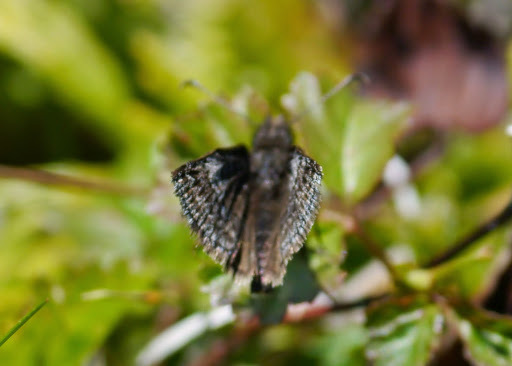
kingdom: Animalia
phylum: Arthropoda
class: Insecta
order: Lepidoptera
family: Hesperiidae
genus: Erynnis
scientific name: Erynnis icelus
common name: Dreamy duskywing
